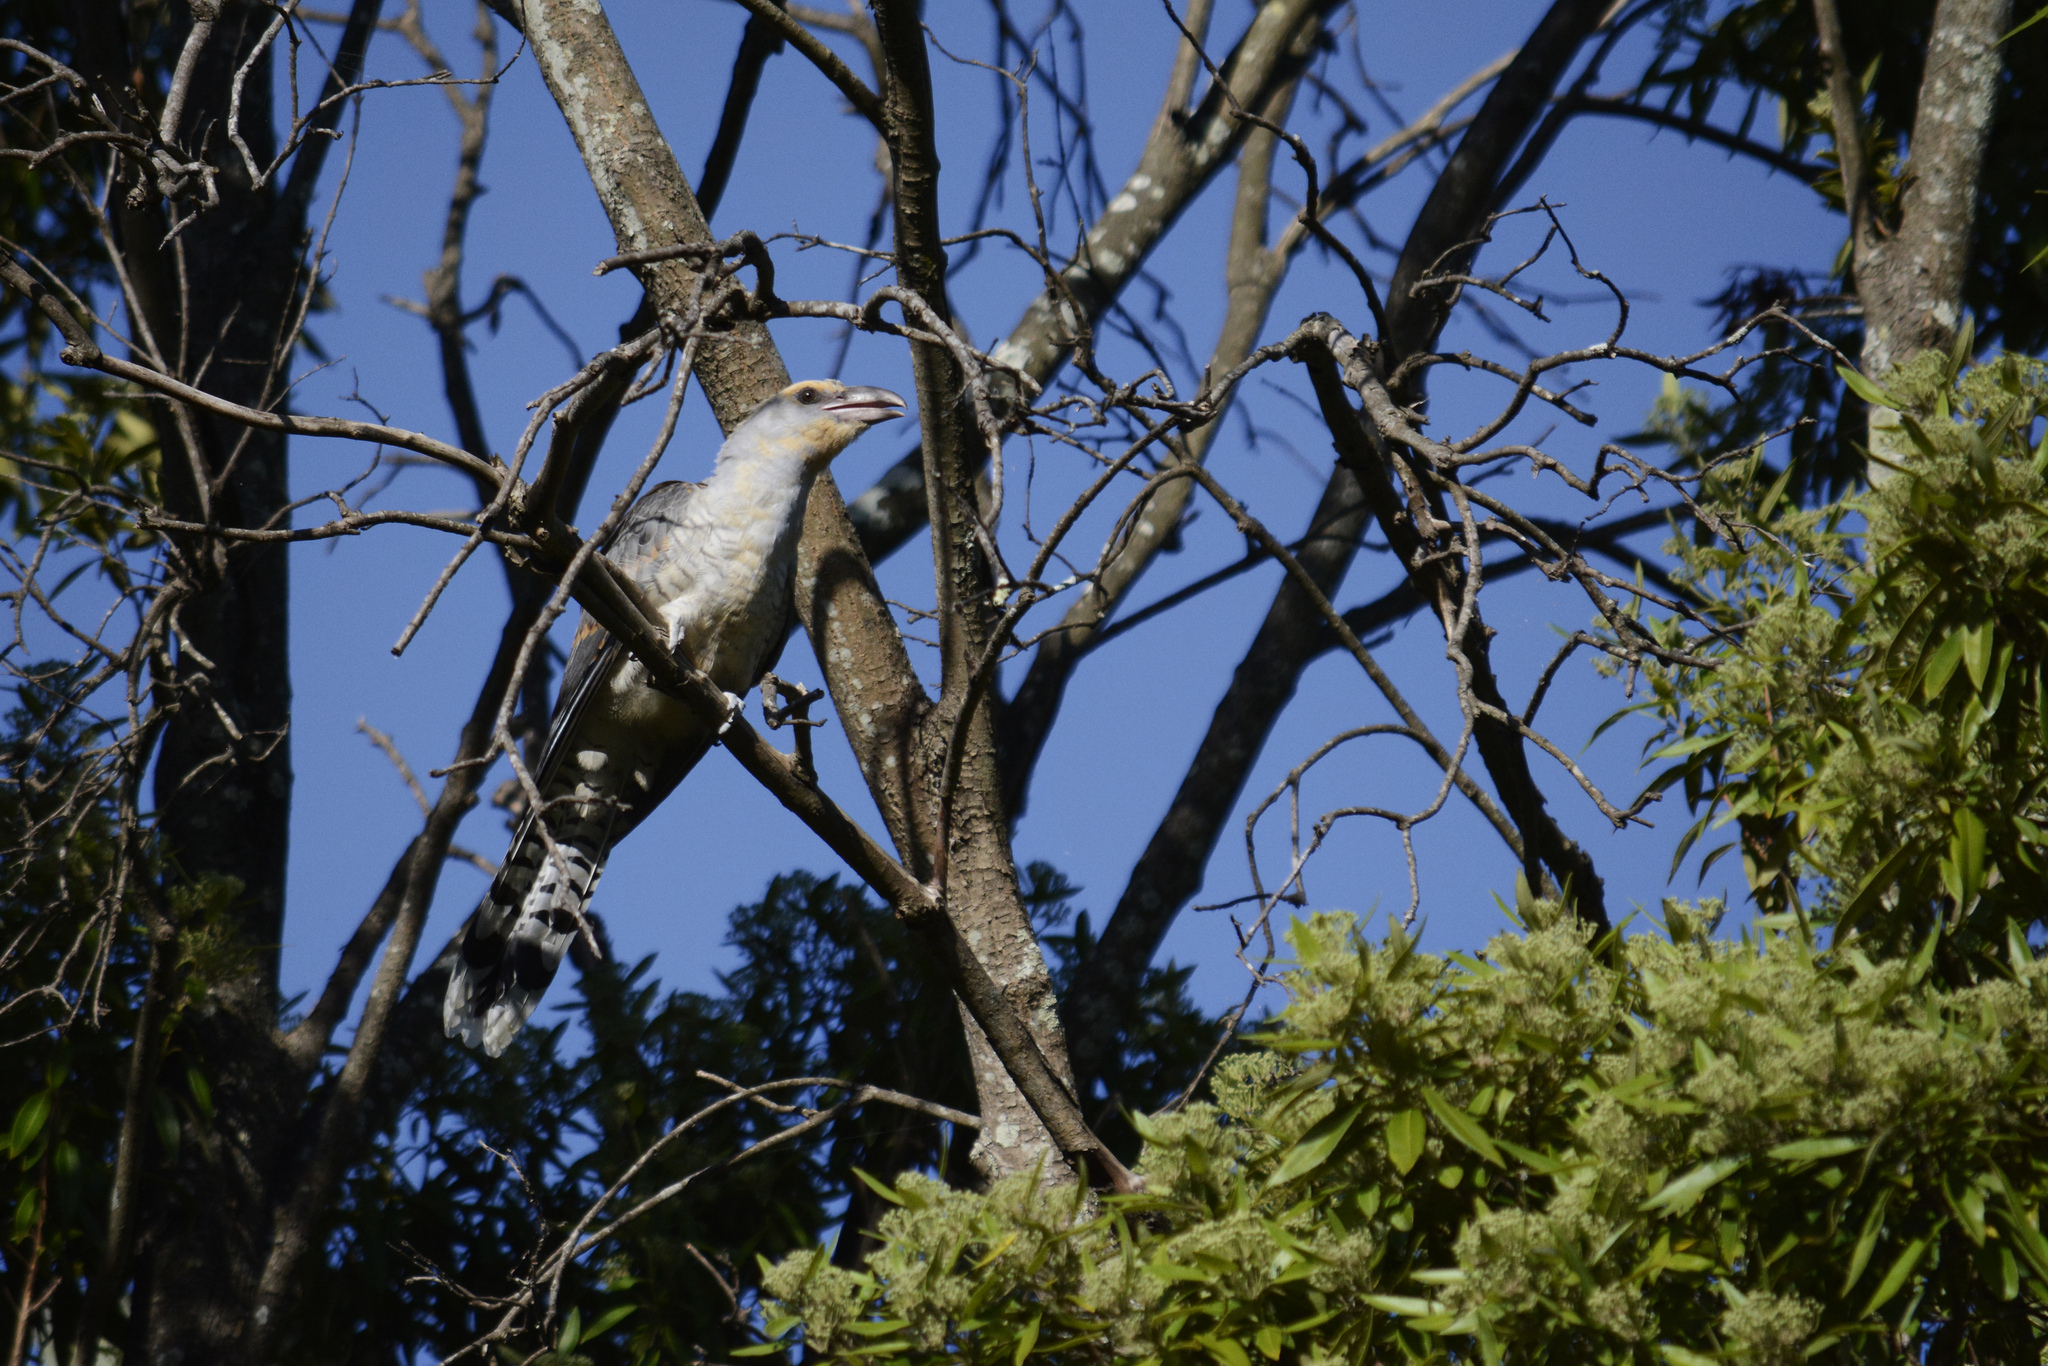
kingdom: Animalia
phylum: Chordata
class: Aves
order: Cuculiformes
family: Cuculidae
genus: Scythrops
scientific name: Scythrops novaehollandiae
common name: Channel-billed cuckoo
